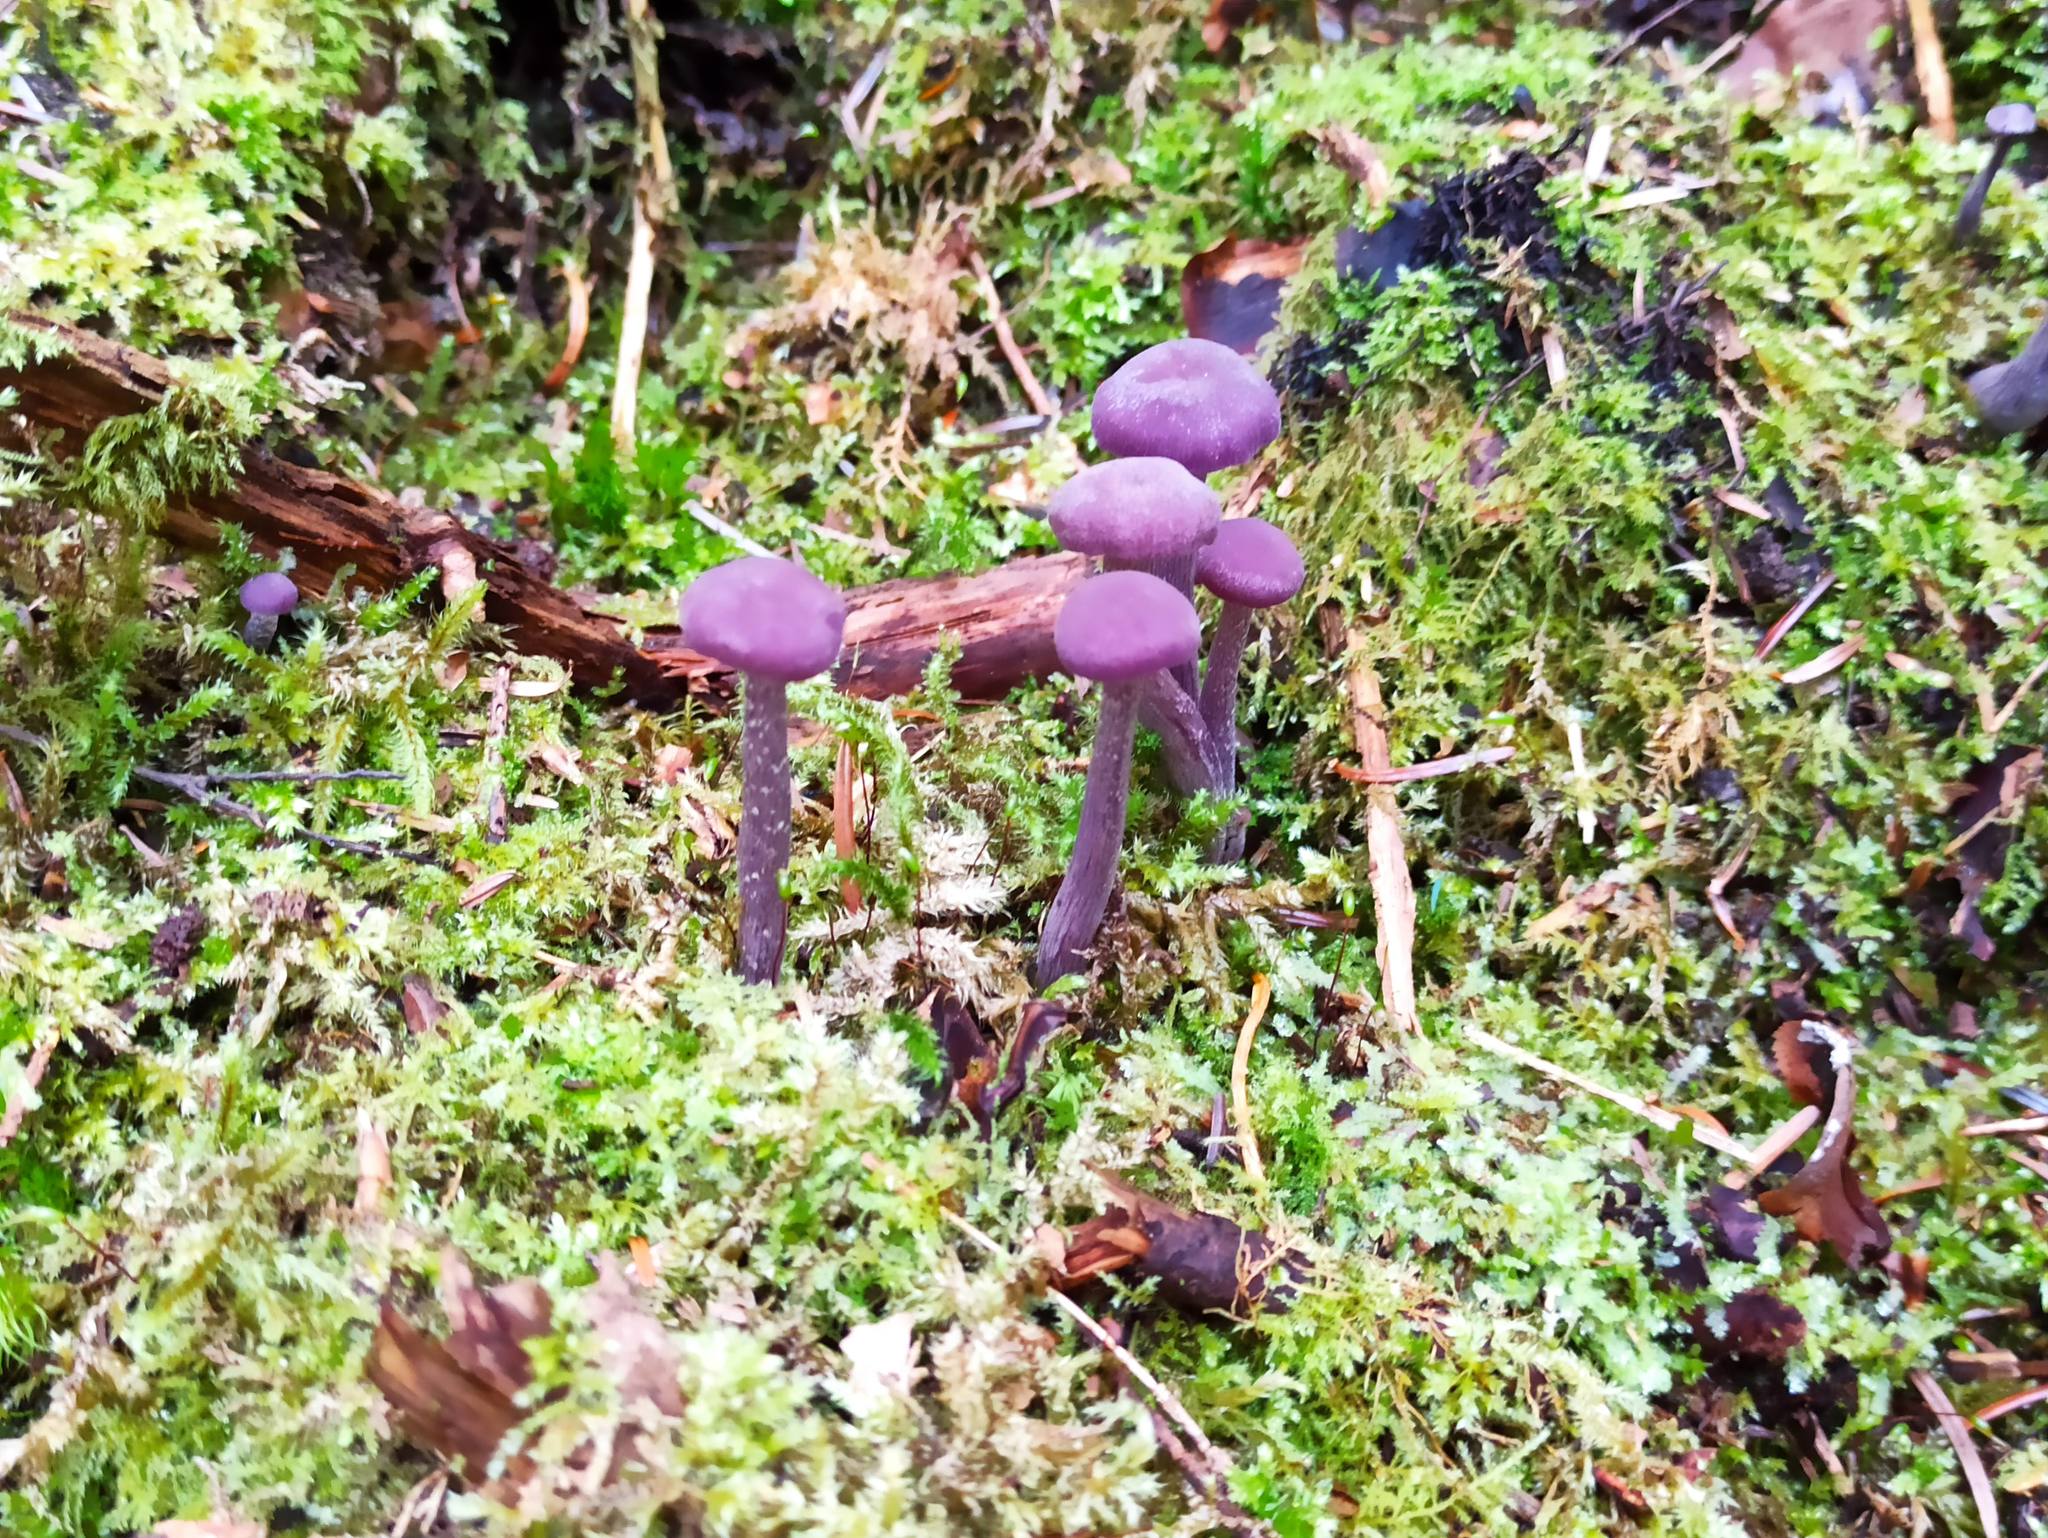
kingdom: Fungi
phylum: Basidiomycota
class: Agaricomycetes
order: Agaricales
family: Hydnangiaceae
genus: Laccaria
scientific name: Laccaria amethystina
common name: Amethyst deceiver
